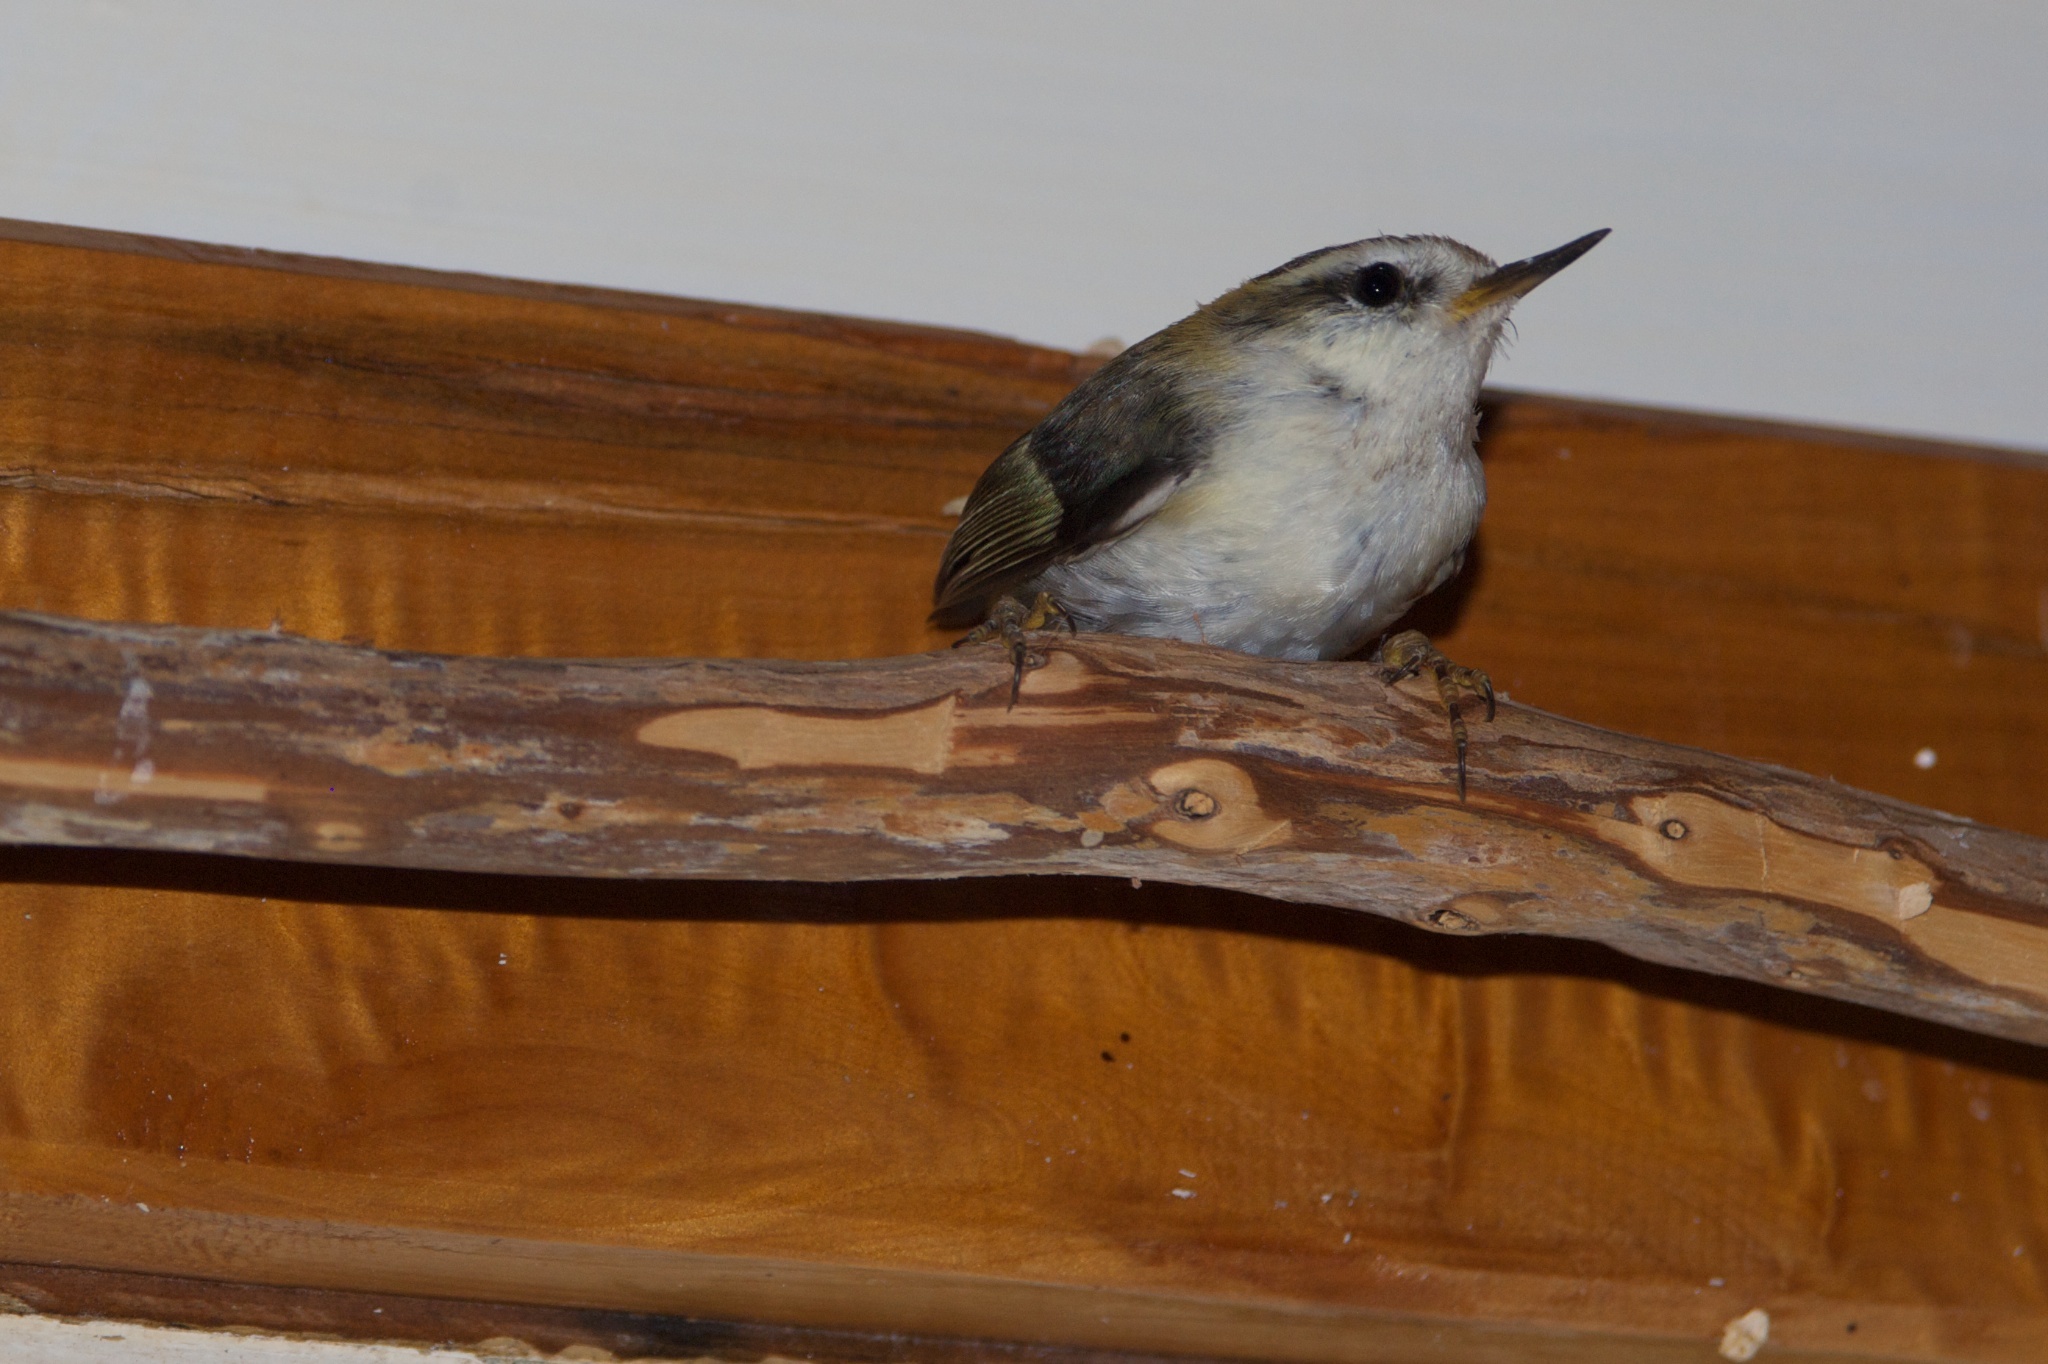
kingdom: Animalia
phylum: Chordata
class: Aves
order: Passeriformes
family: Acanthisittidae
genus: Acanthisitta
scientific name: Acanthisitta chloris
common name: Rifleman
